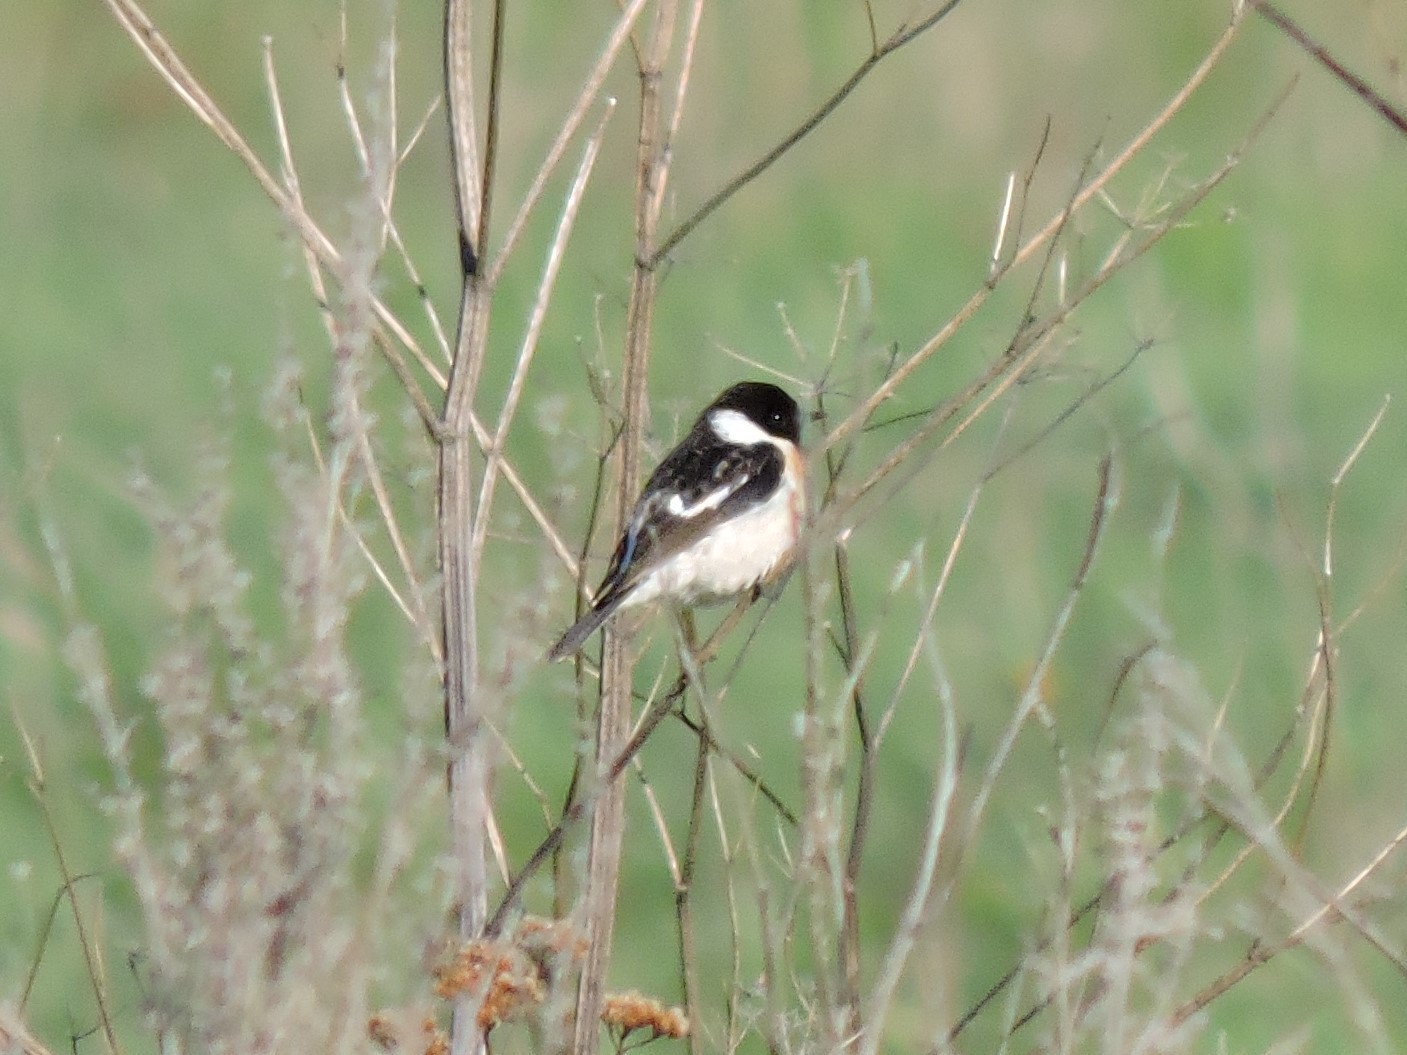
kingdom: Animalia
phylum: Chordata
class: Aves
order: Passeriformes
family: Muscicapidae
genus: Saxicola
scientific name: Saxicola maurus
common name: Siberian stonechat
